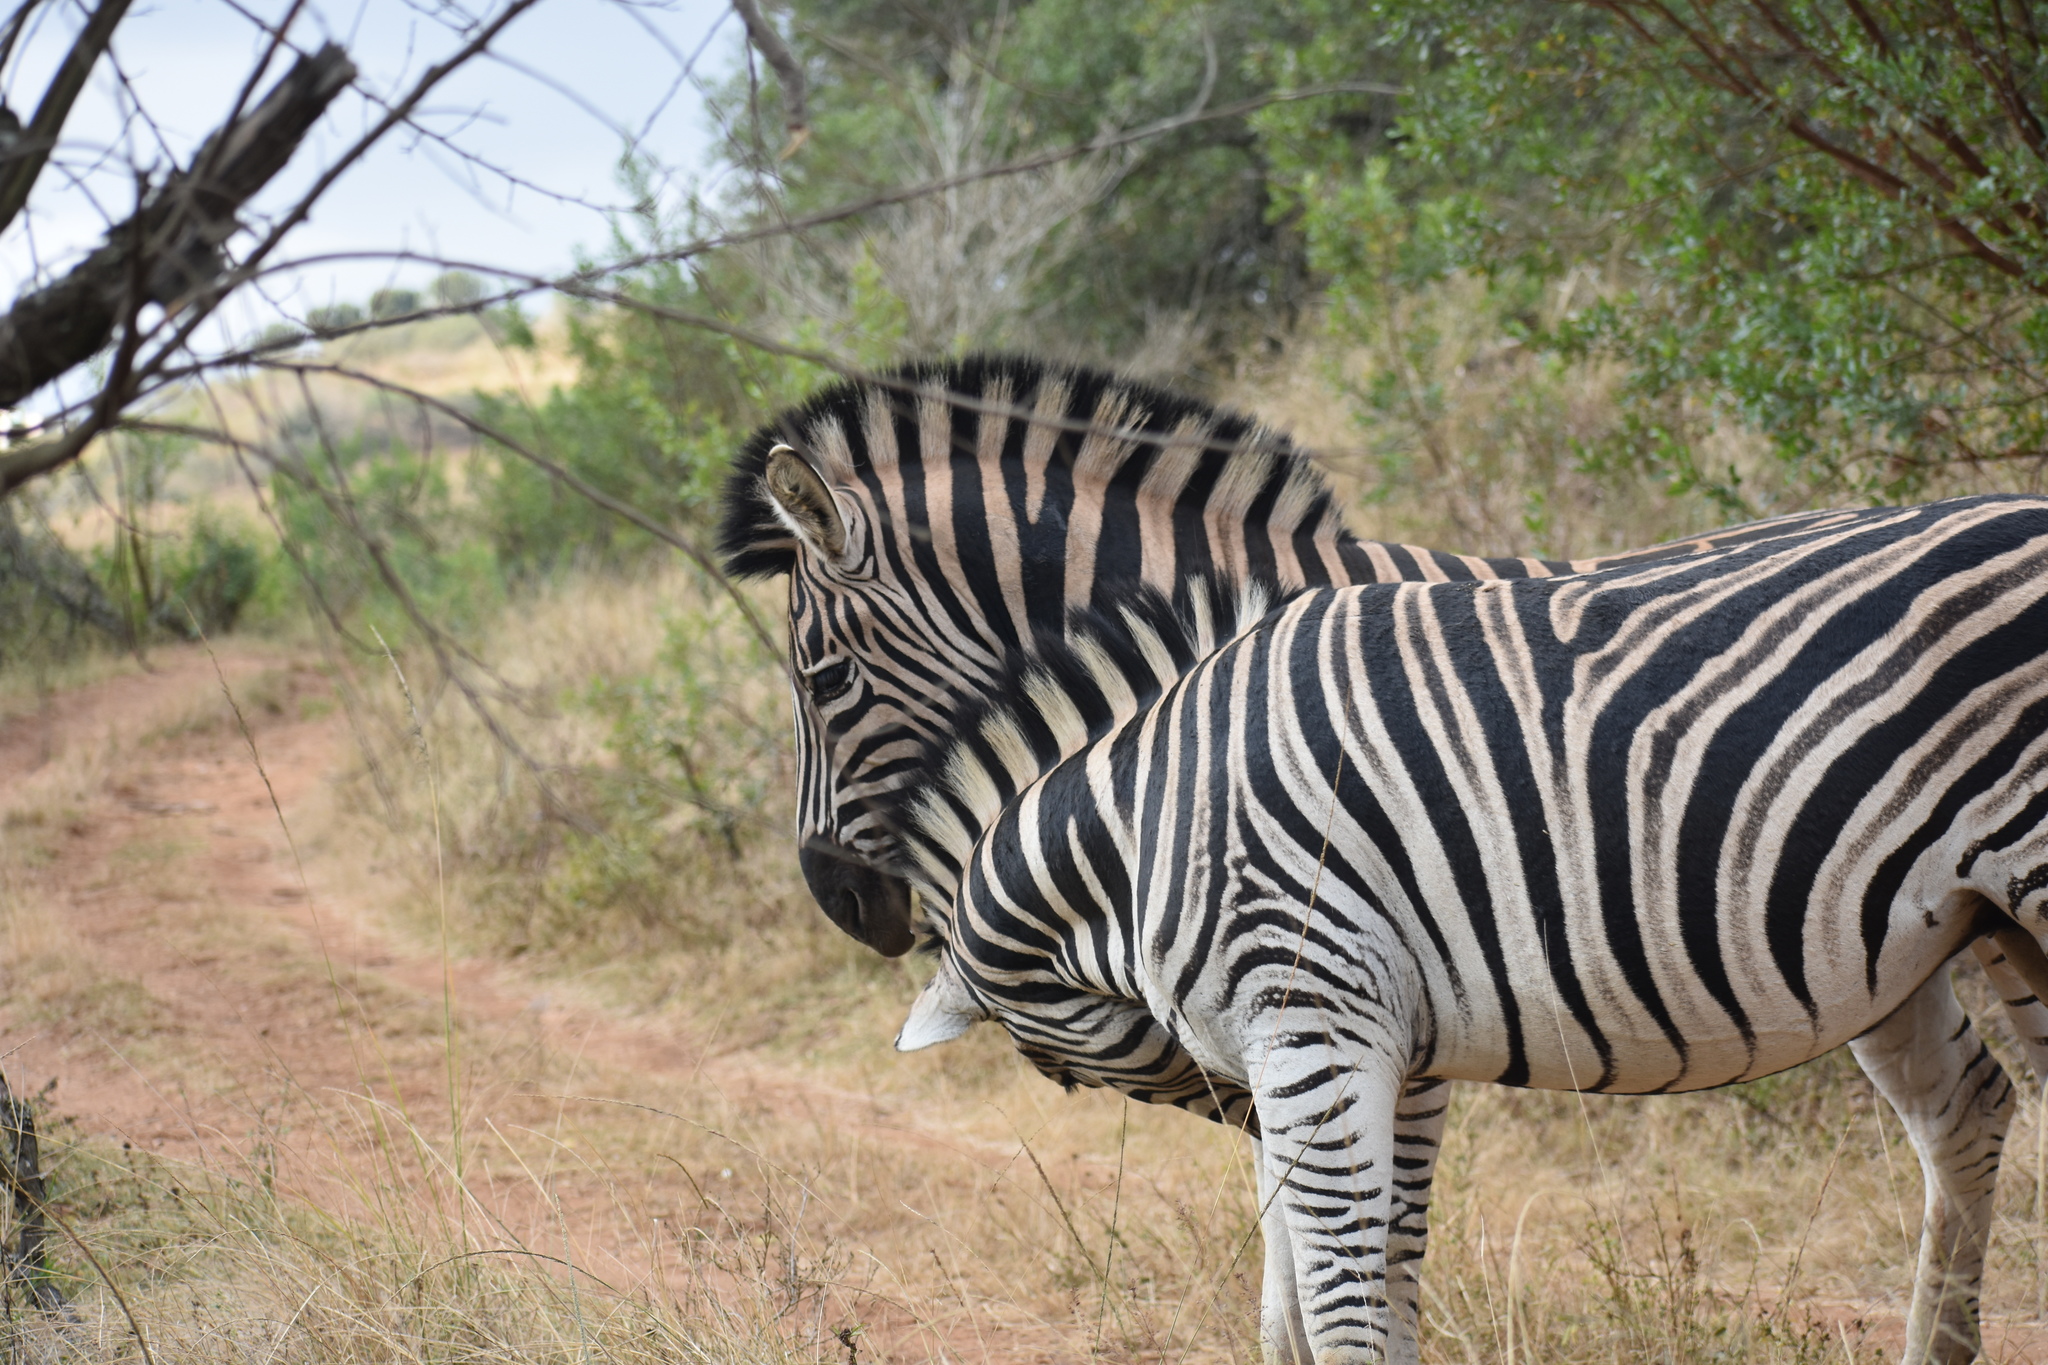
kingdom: Animalia
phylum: Chordata
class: Mammalia
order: Perissodactyla
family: Equidae
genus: Equus
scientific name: Equus quagga
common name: Plains zebra
